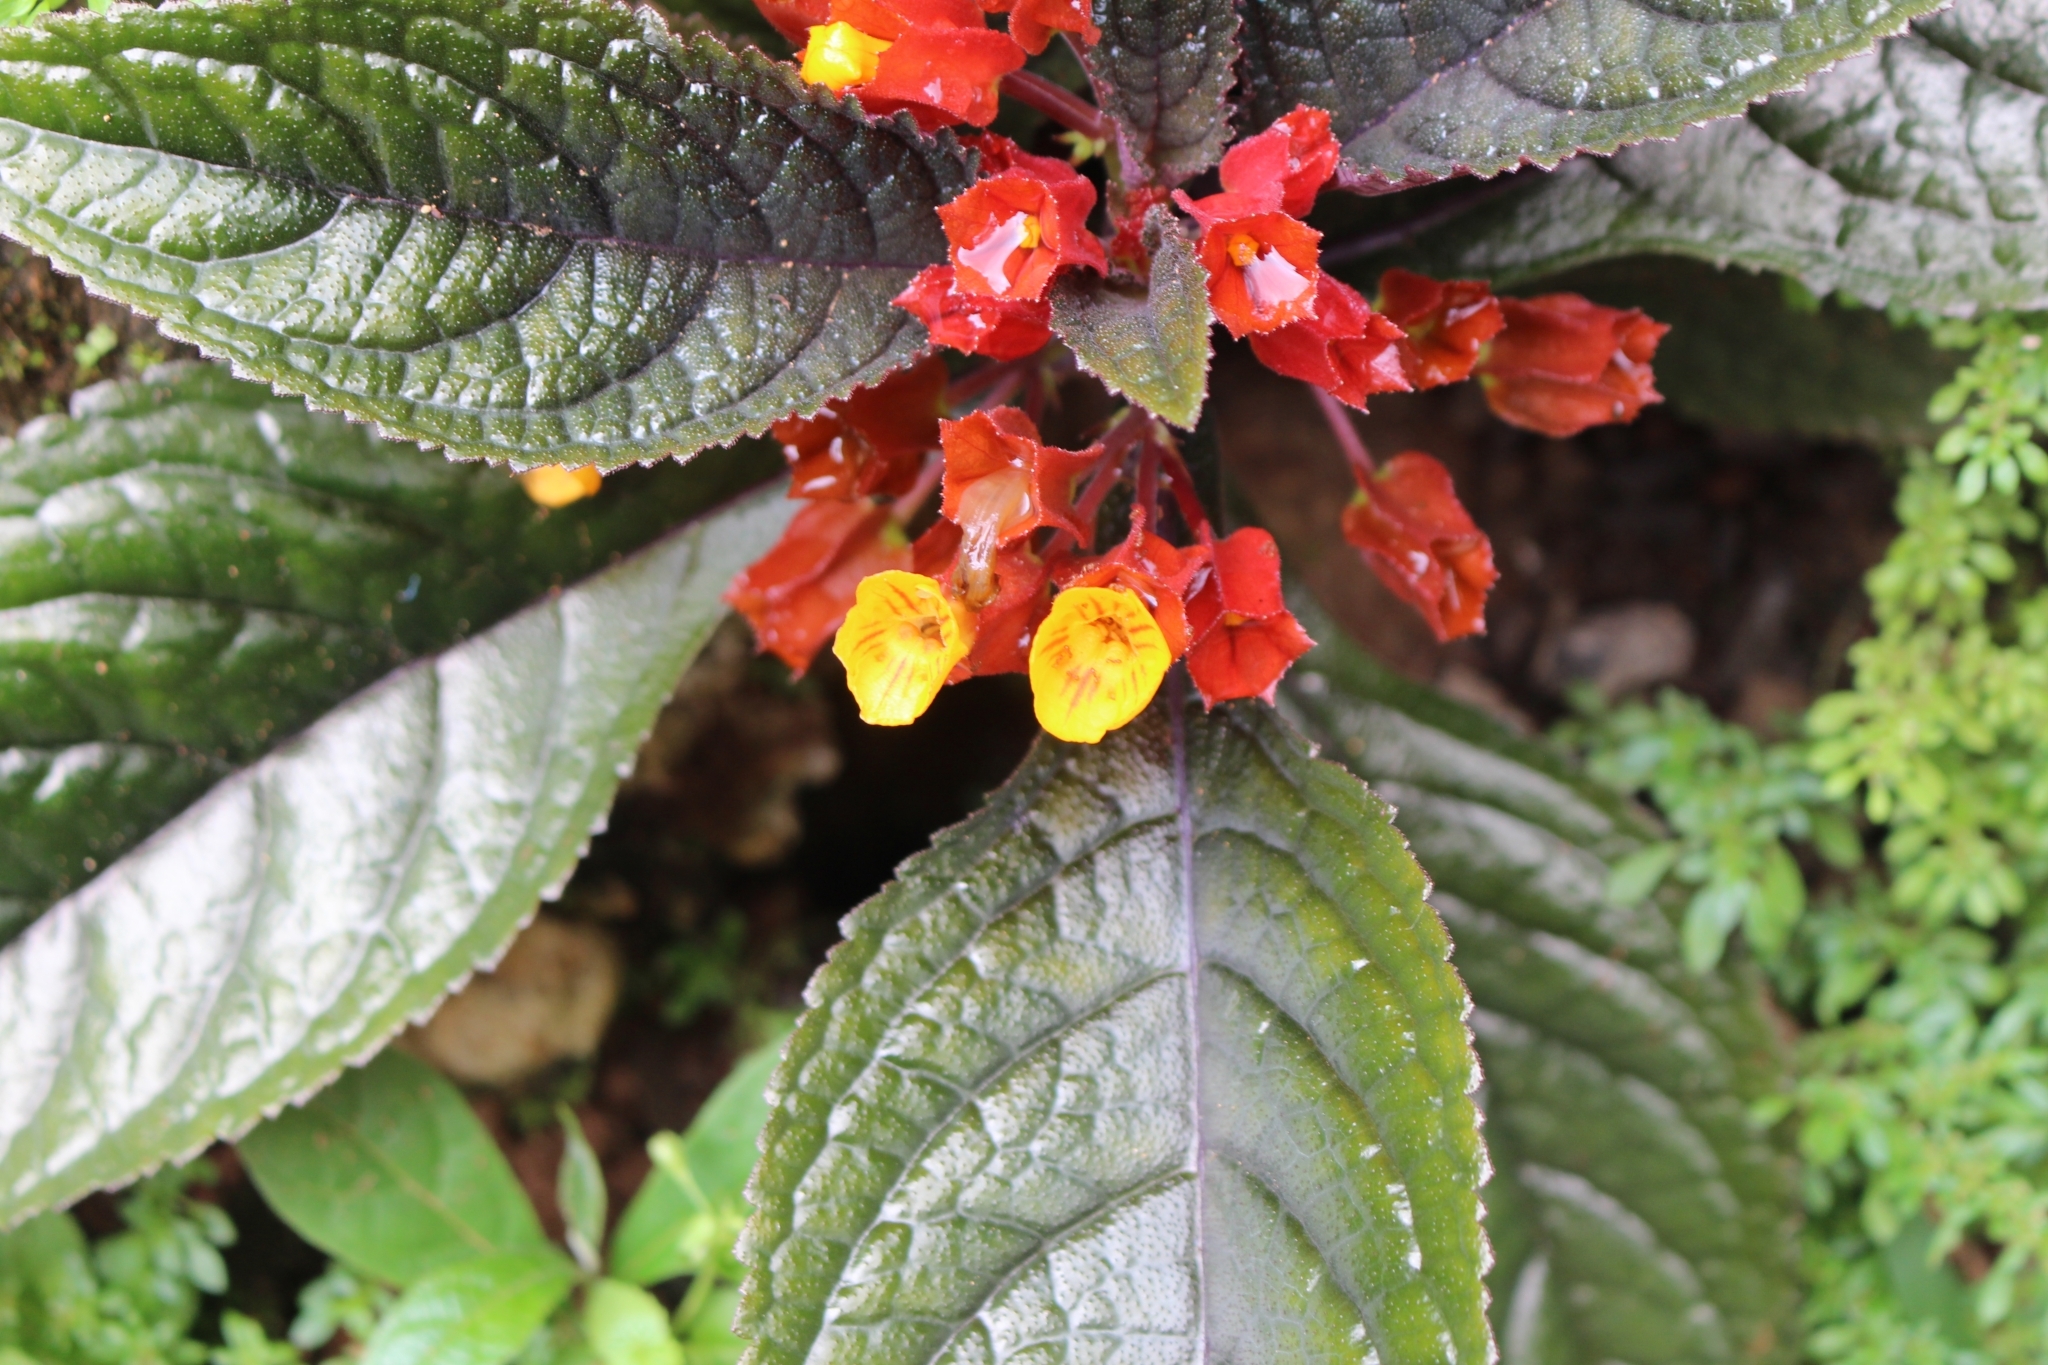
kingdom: Plantae
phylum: Tracheophyta
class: Magnoliopsida
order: Lamiales
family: Gesneriaceae
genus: Chrysothemis
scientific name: Chrysothemis pulchella
